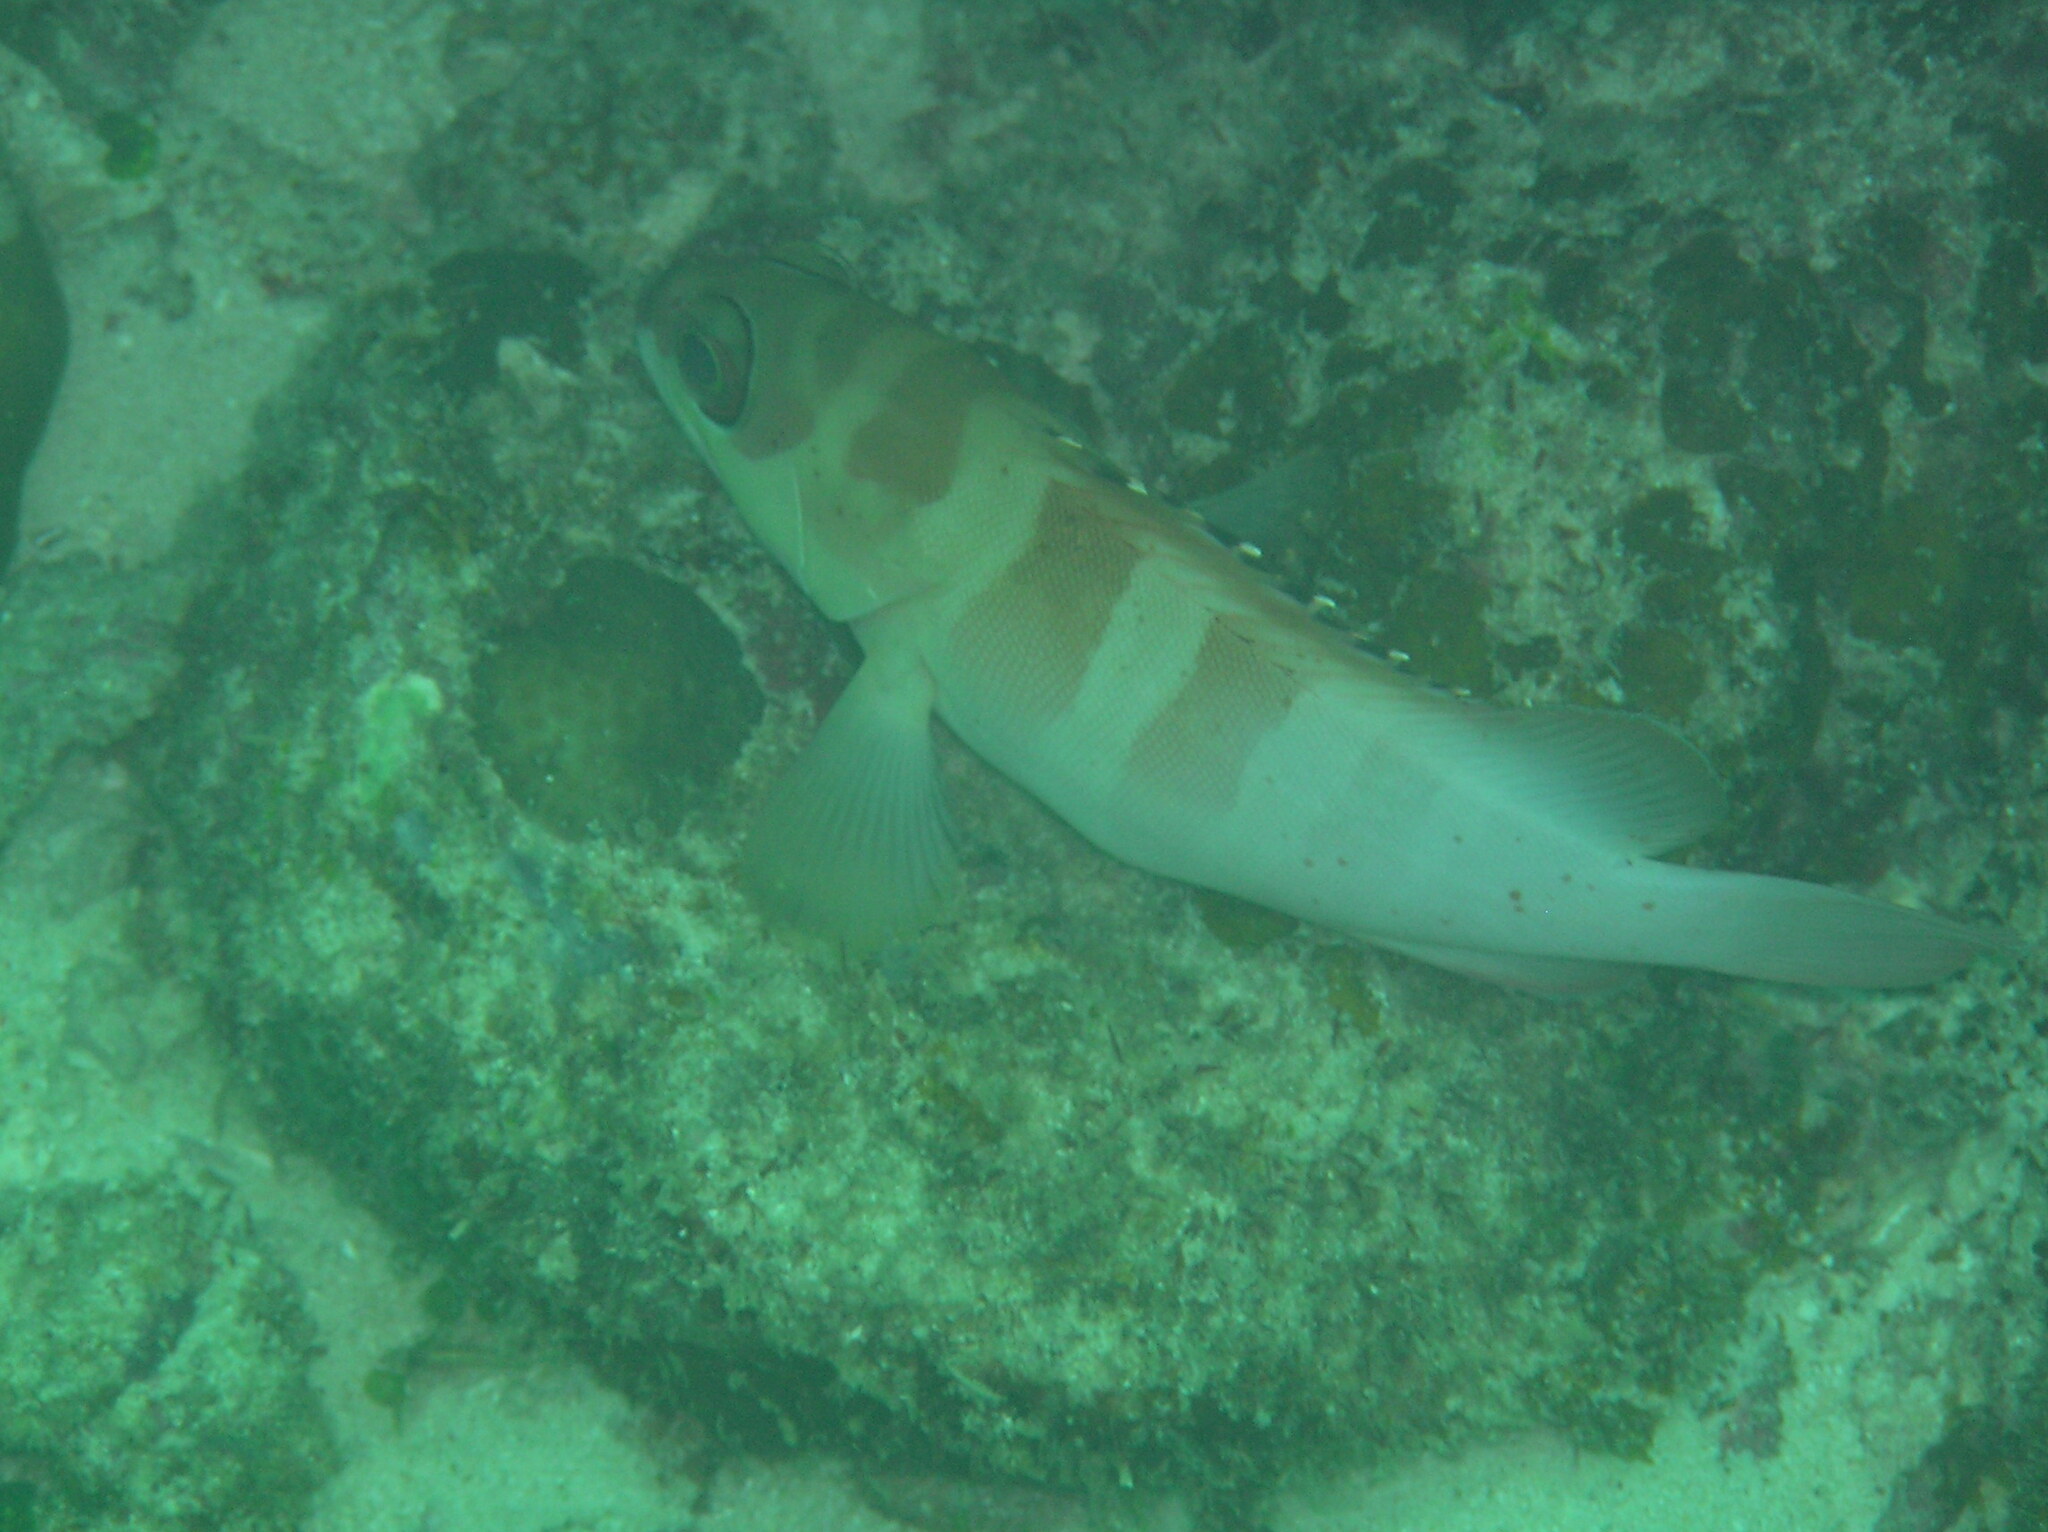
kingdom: Animalia
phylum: Chordata
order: Perciformes
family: Serranidae
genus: Epinephelus
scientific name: Epinephelus fasciatus
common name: Blacktip grouper
